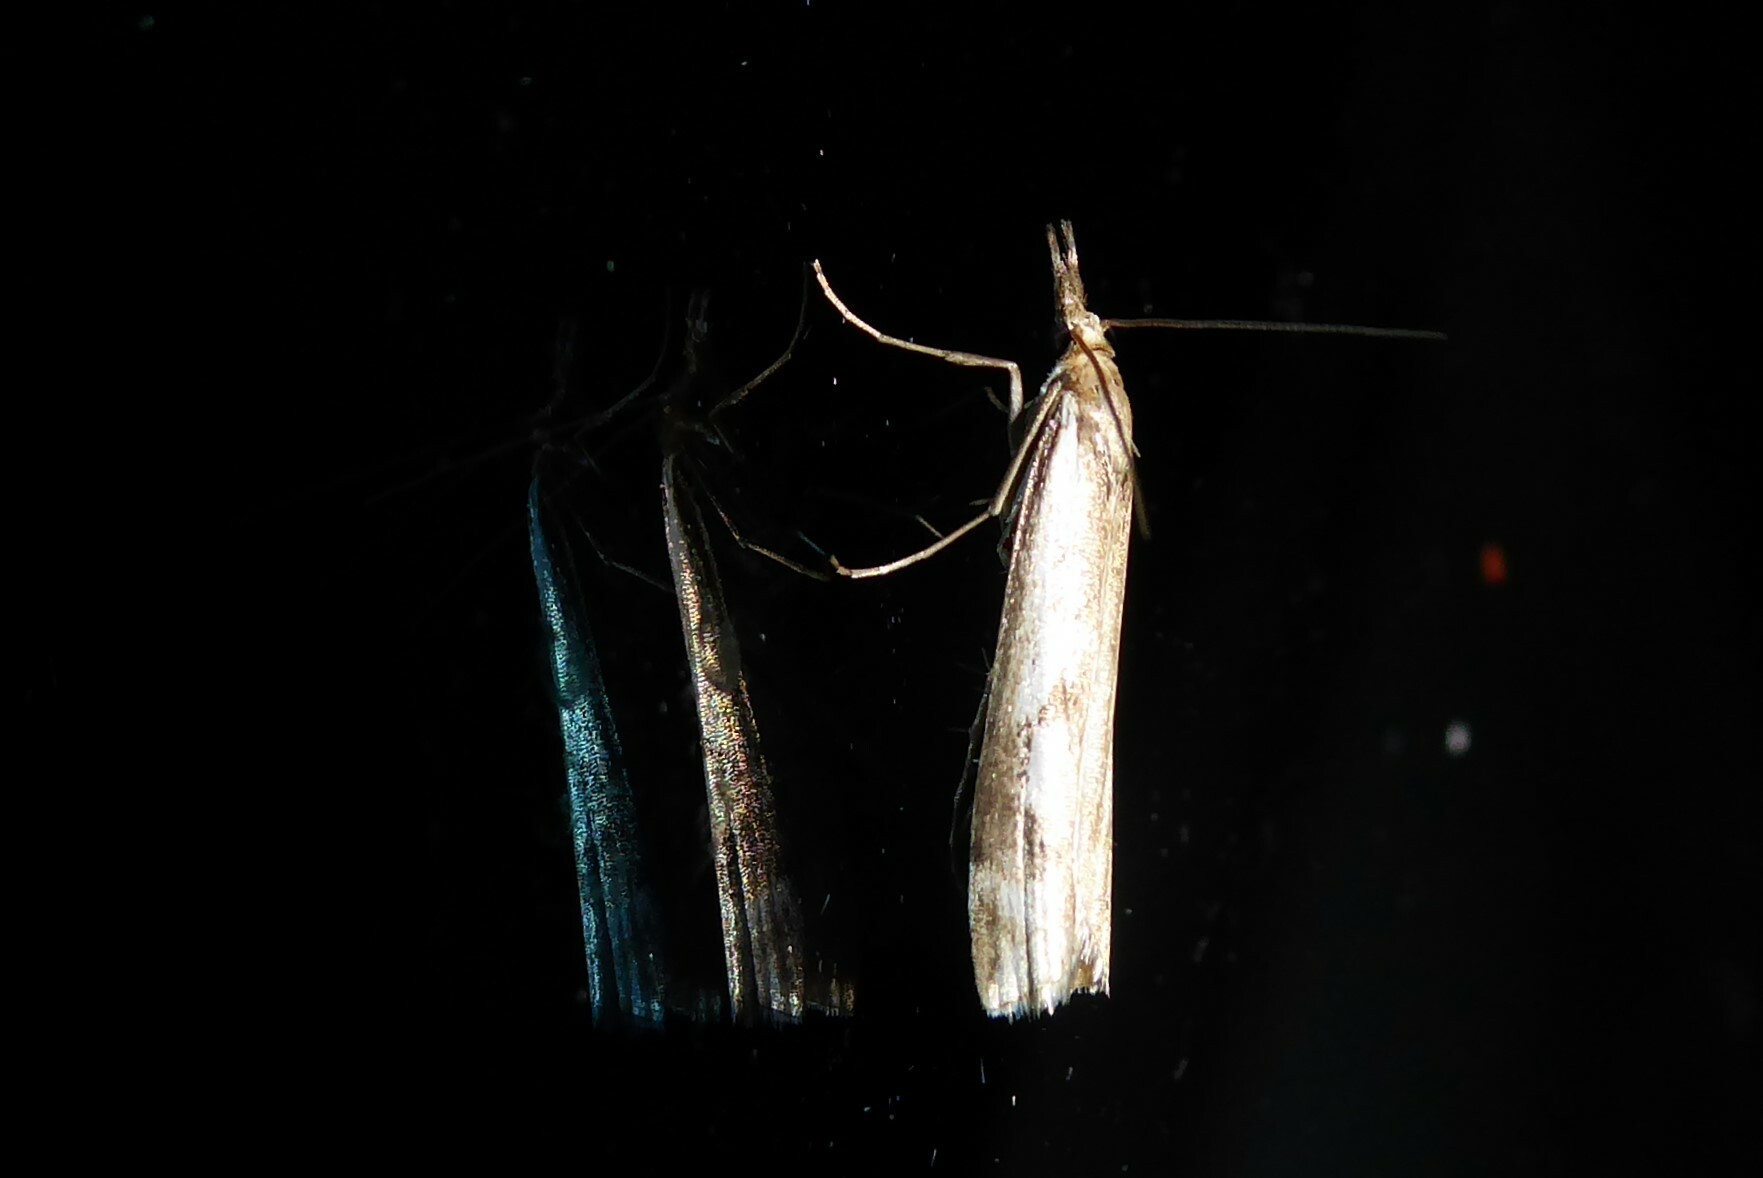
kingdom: Animalia
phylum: Arthropoda
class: Insecta
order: Lepidoptera
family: Crambidae
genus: Orocrambus
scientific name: Orocrambus vulgaris
